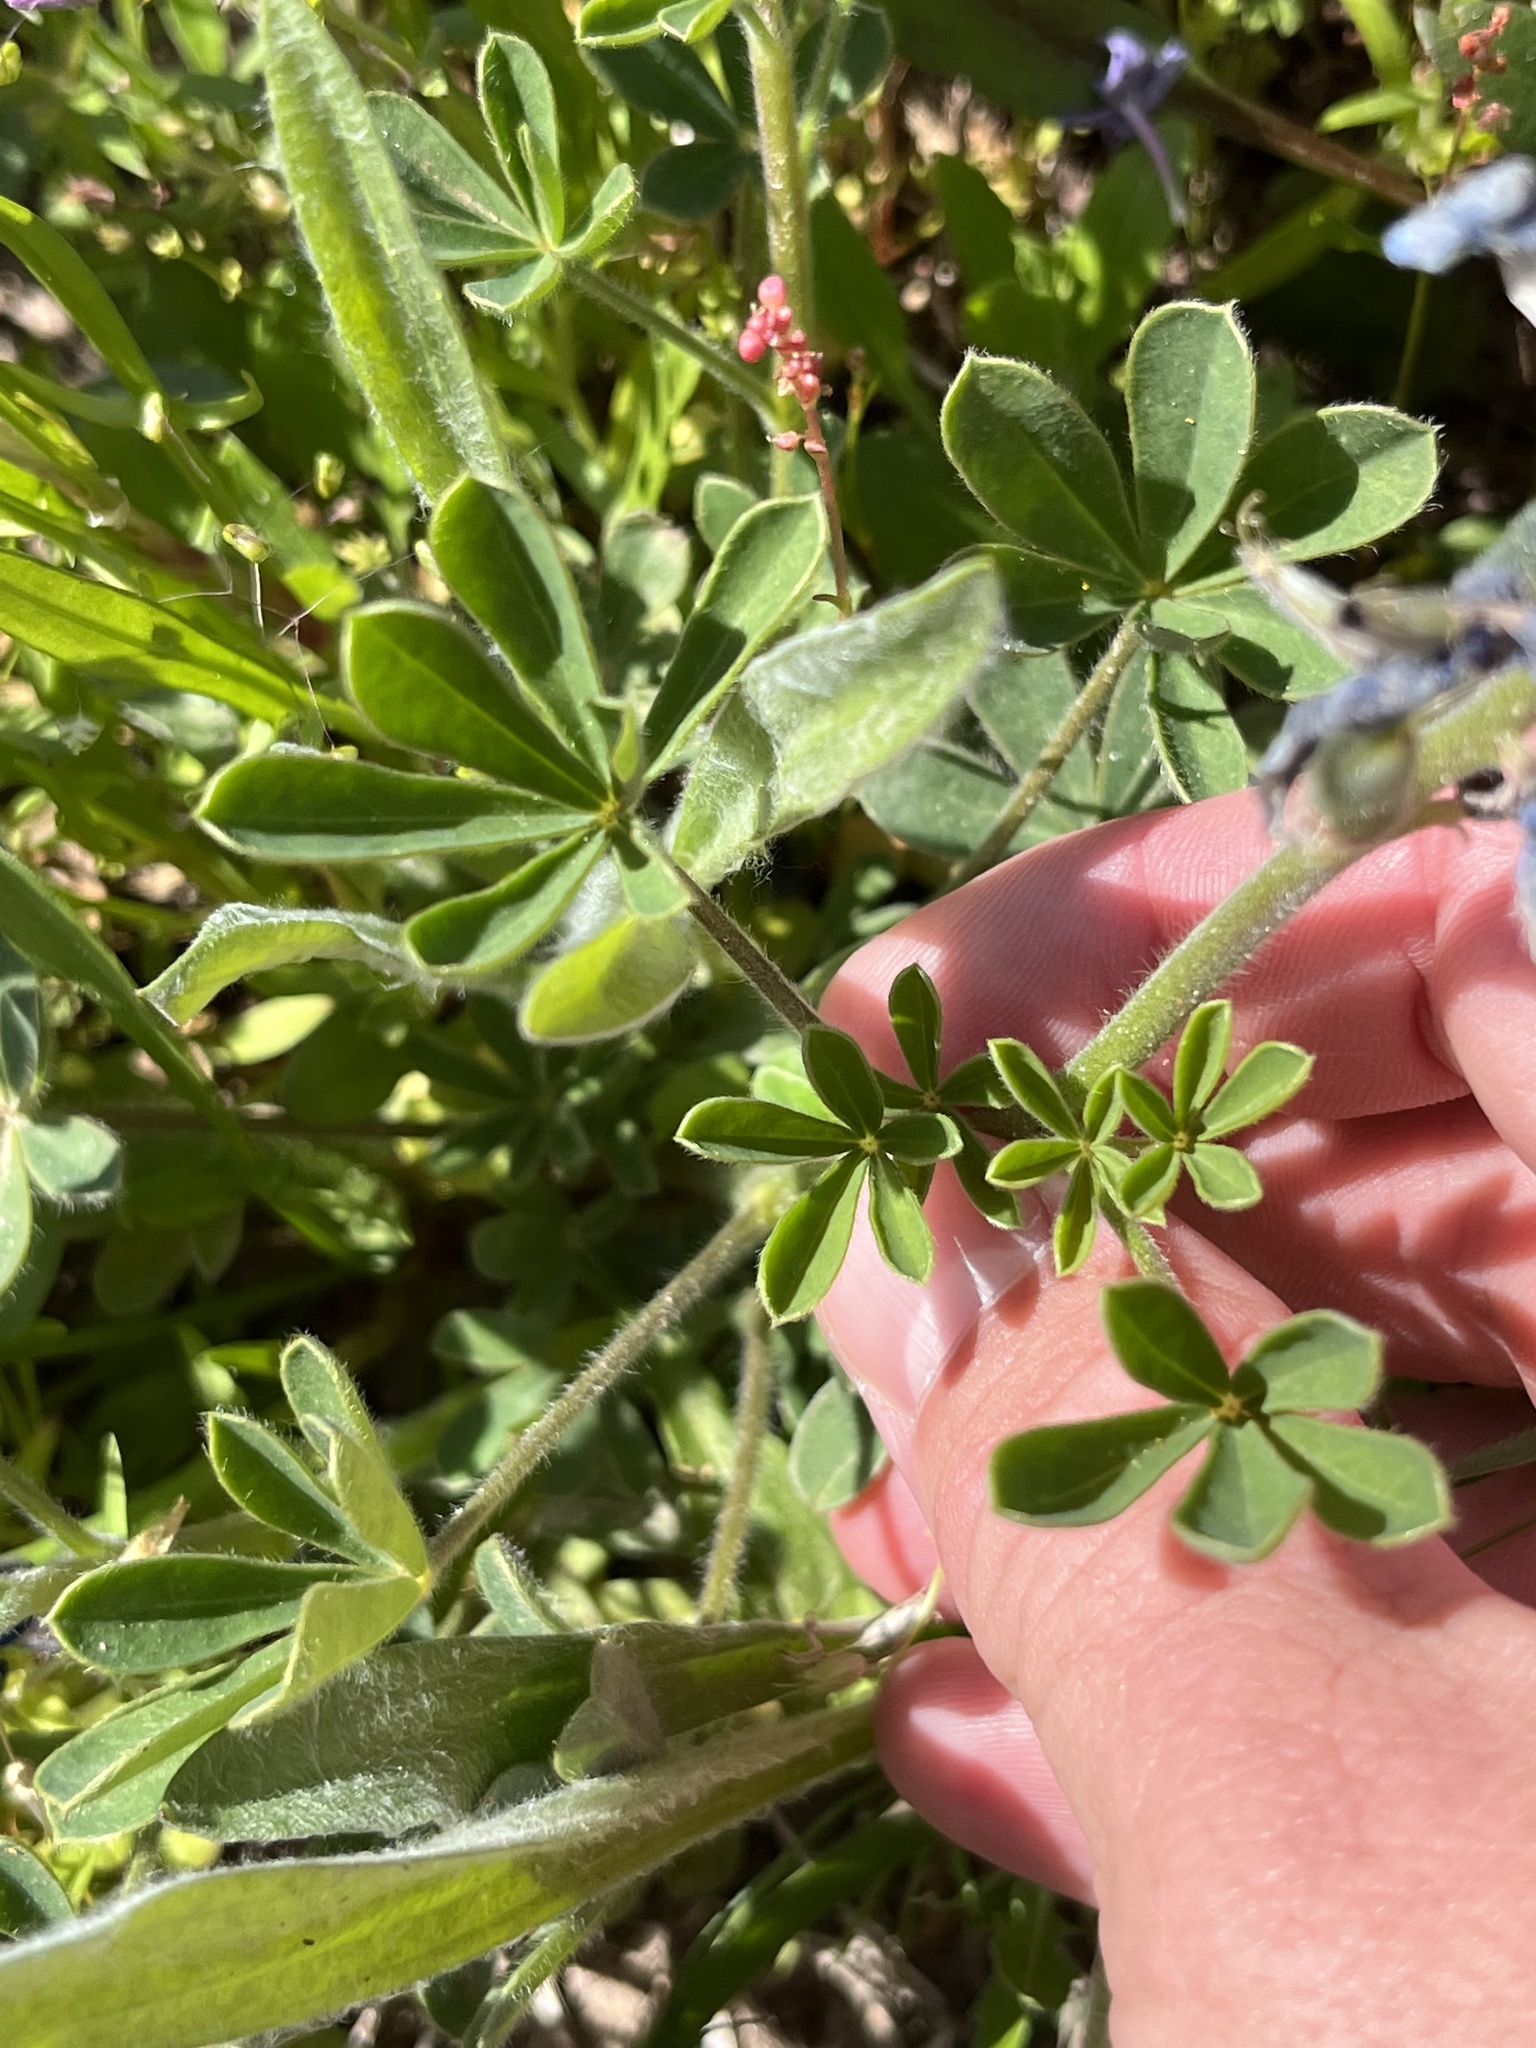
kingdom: Plantae
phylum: Tracheophyta
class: Magnoliopsida
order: Fabales
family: Fabaceae
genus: Lupinus
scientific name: Lupinus subcarnosus
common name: Texas bluebonnet
